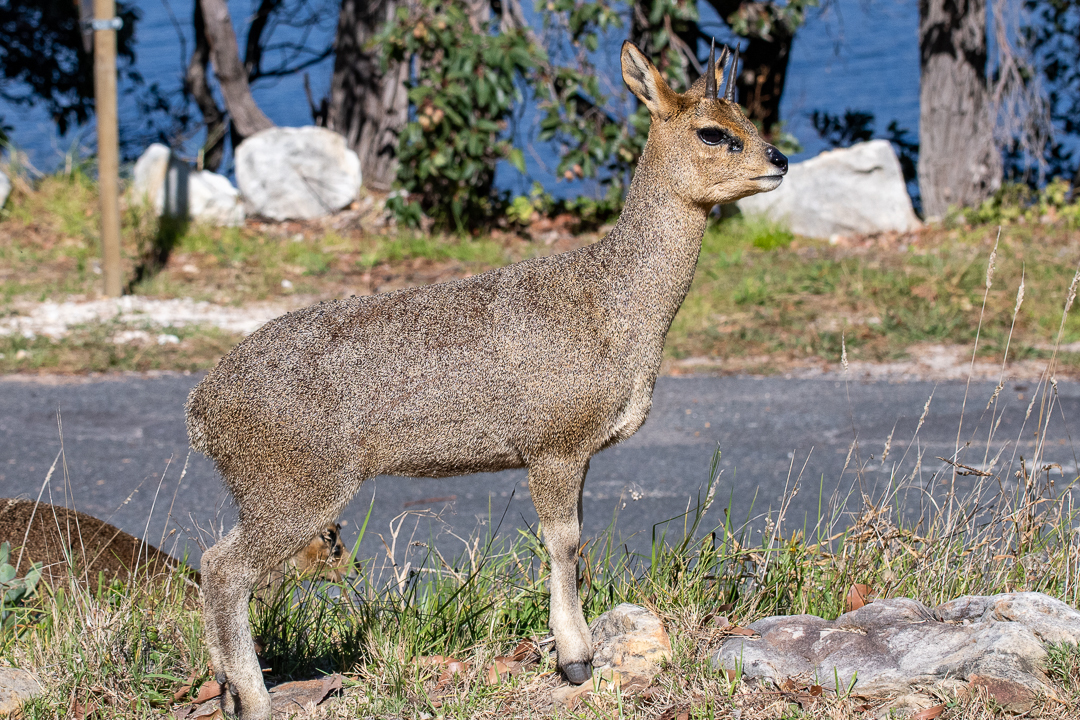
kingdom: Animalia
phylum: Chordata
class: Mammalia
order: Artiodactyla
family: Bovidae
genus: Oreotragus
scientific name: Oreotragus oreotragus
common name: Klipspringer
